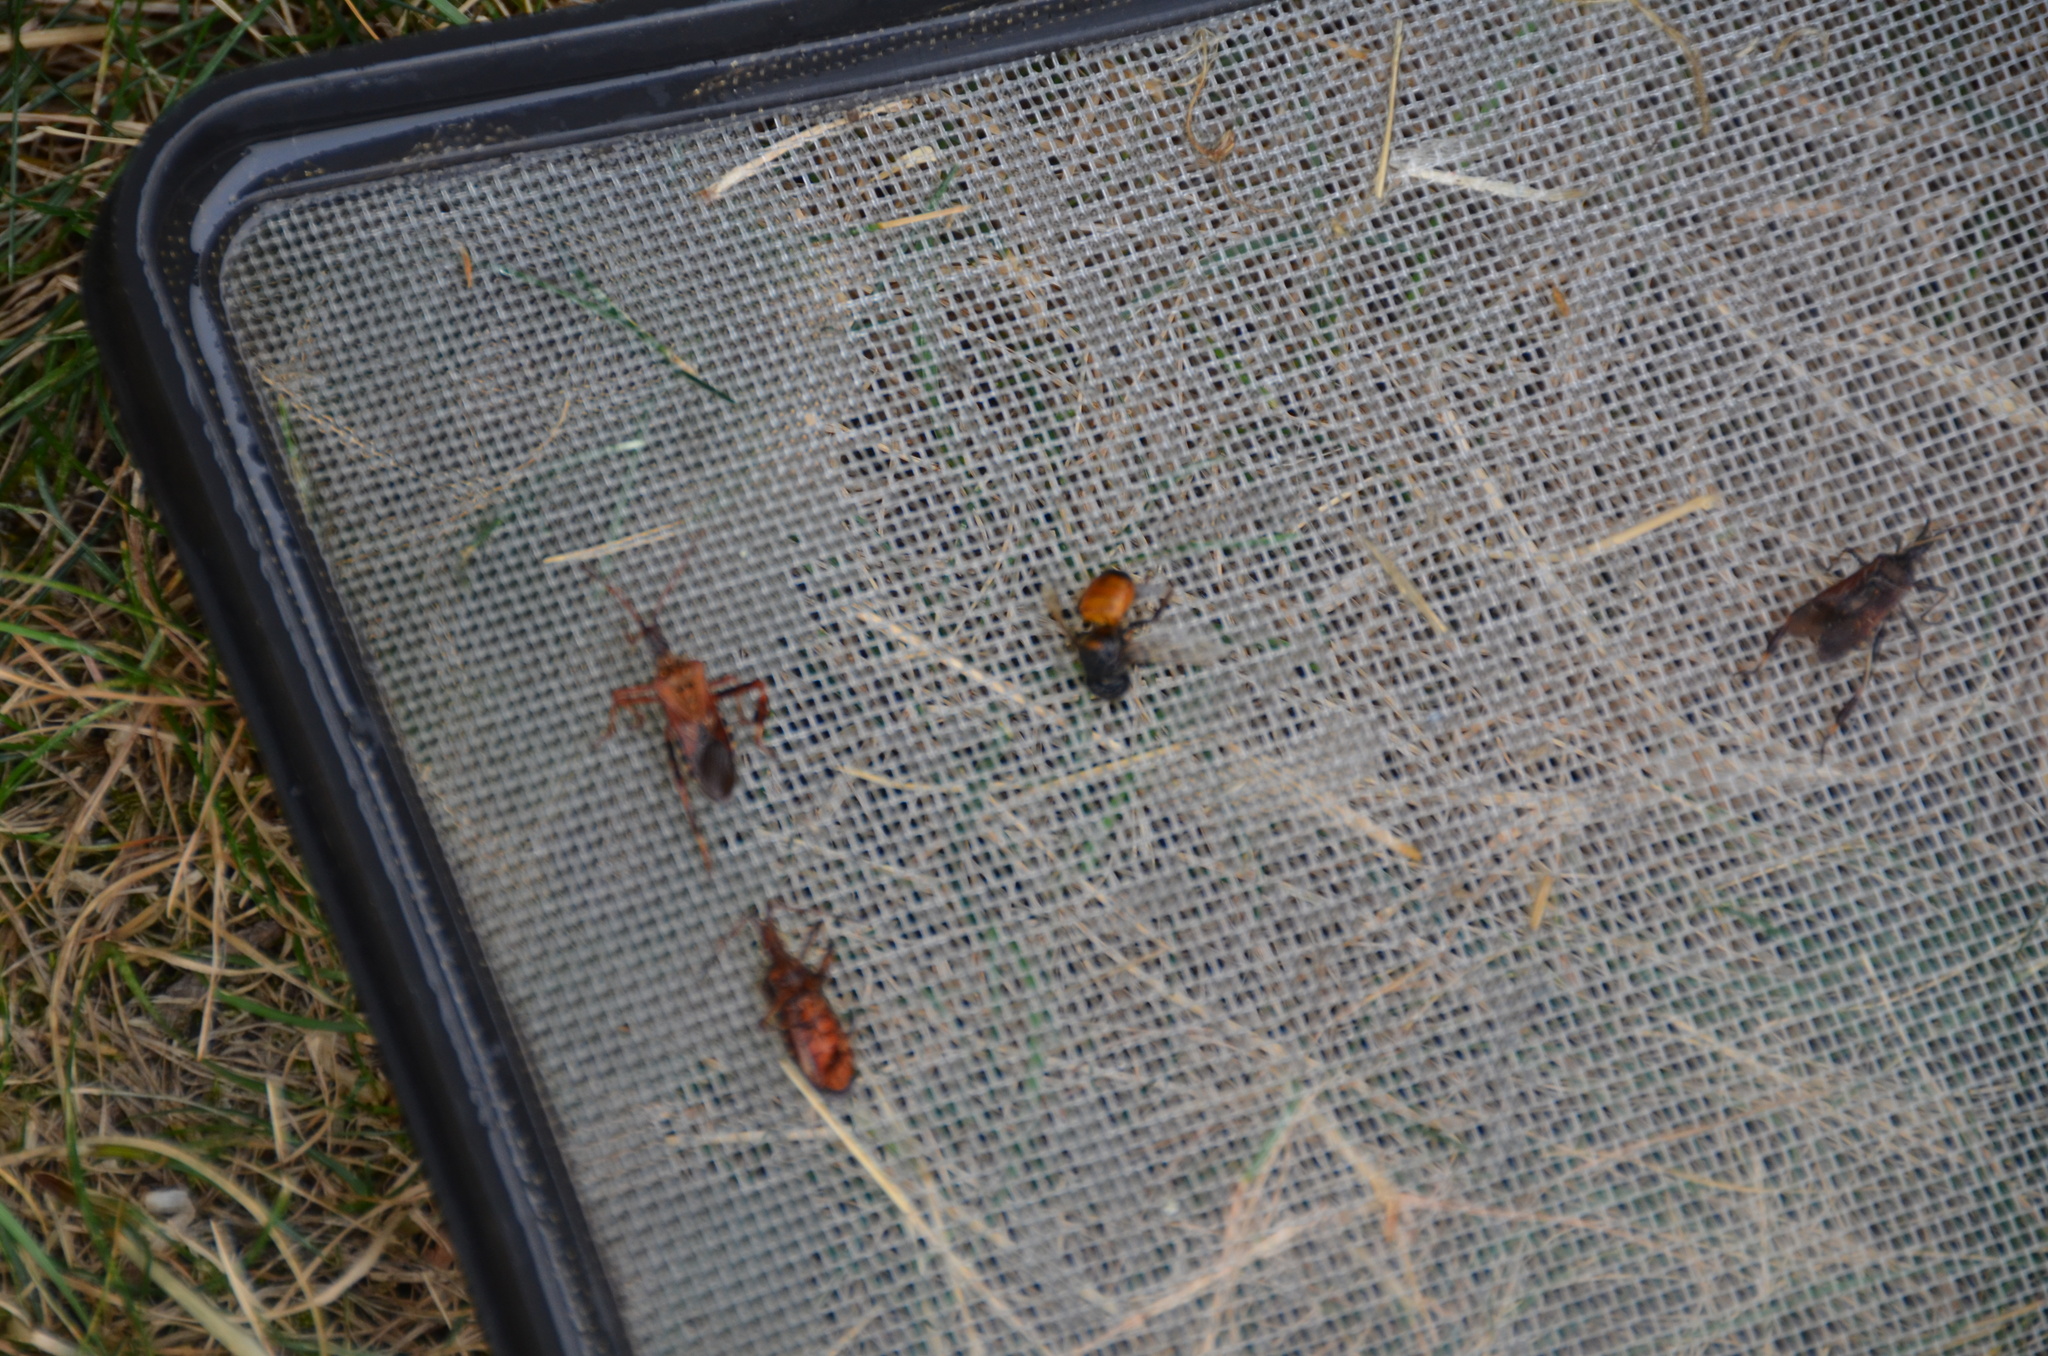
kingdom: Animalia
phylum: Arthropoda
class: Insecta
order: Hymenoptera
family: Apidae
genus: Apis
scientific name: Apis mellifera
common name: Honey bee
